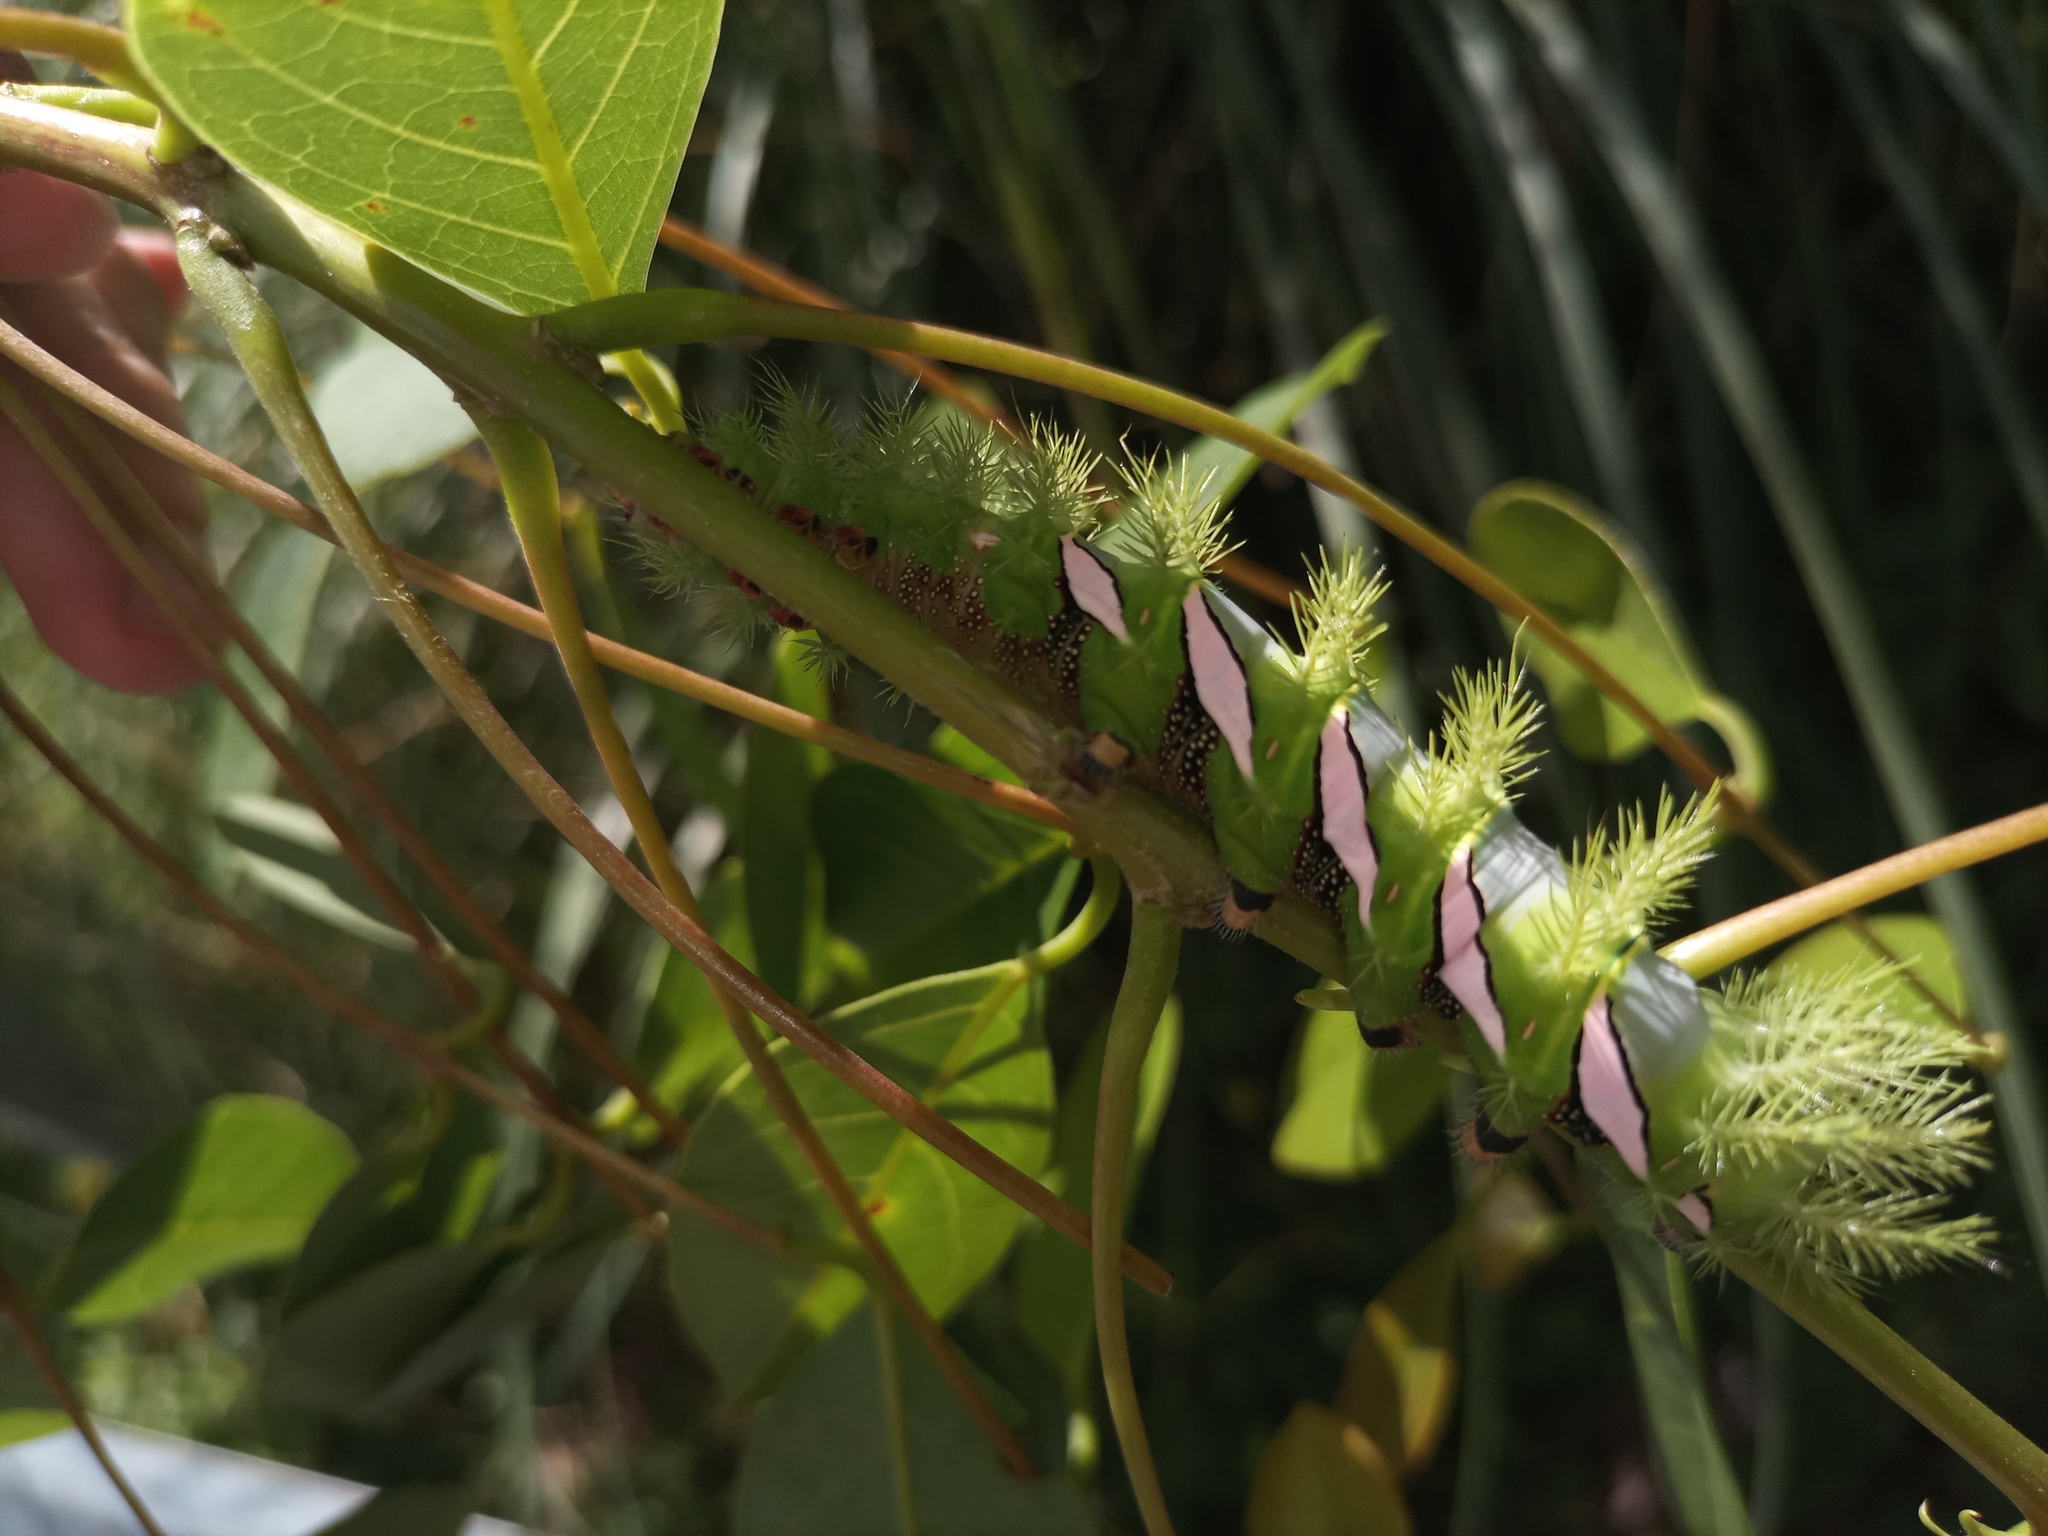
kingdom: Animalia
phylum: Arthropoda
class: Insecta
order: Lepidoptera
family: Saturniidae
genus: Automeris
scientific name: Automeris naranja
